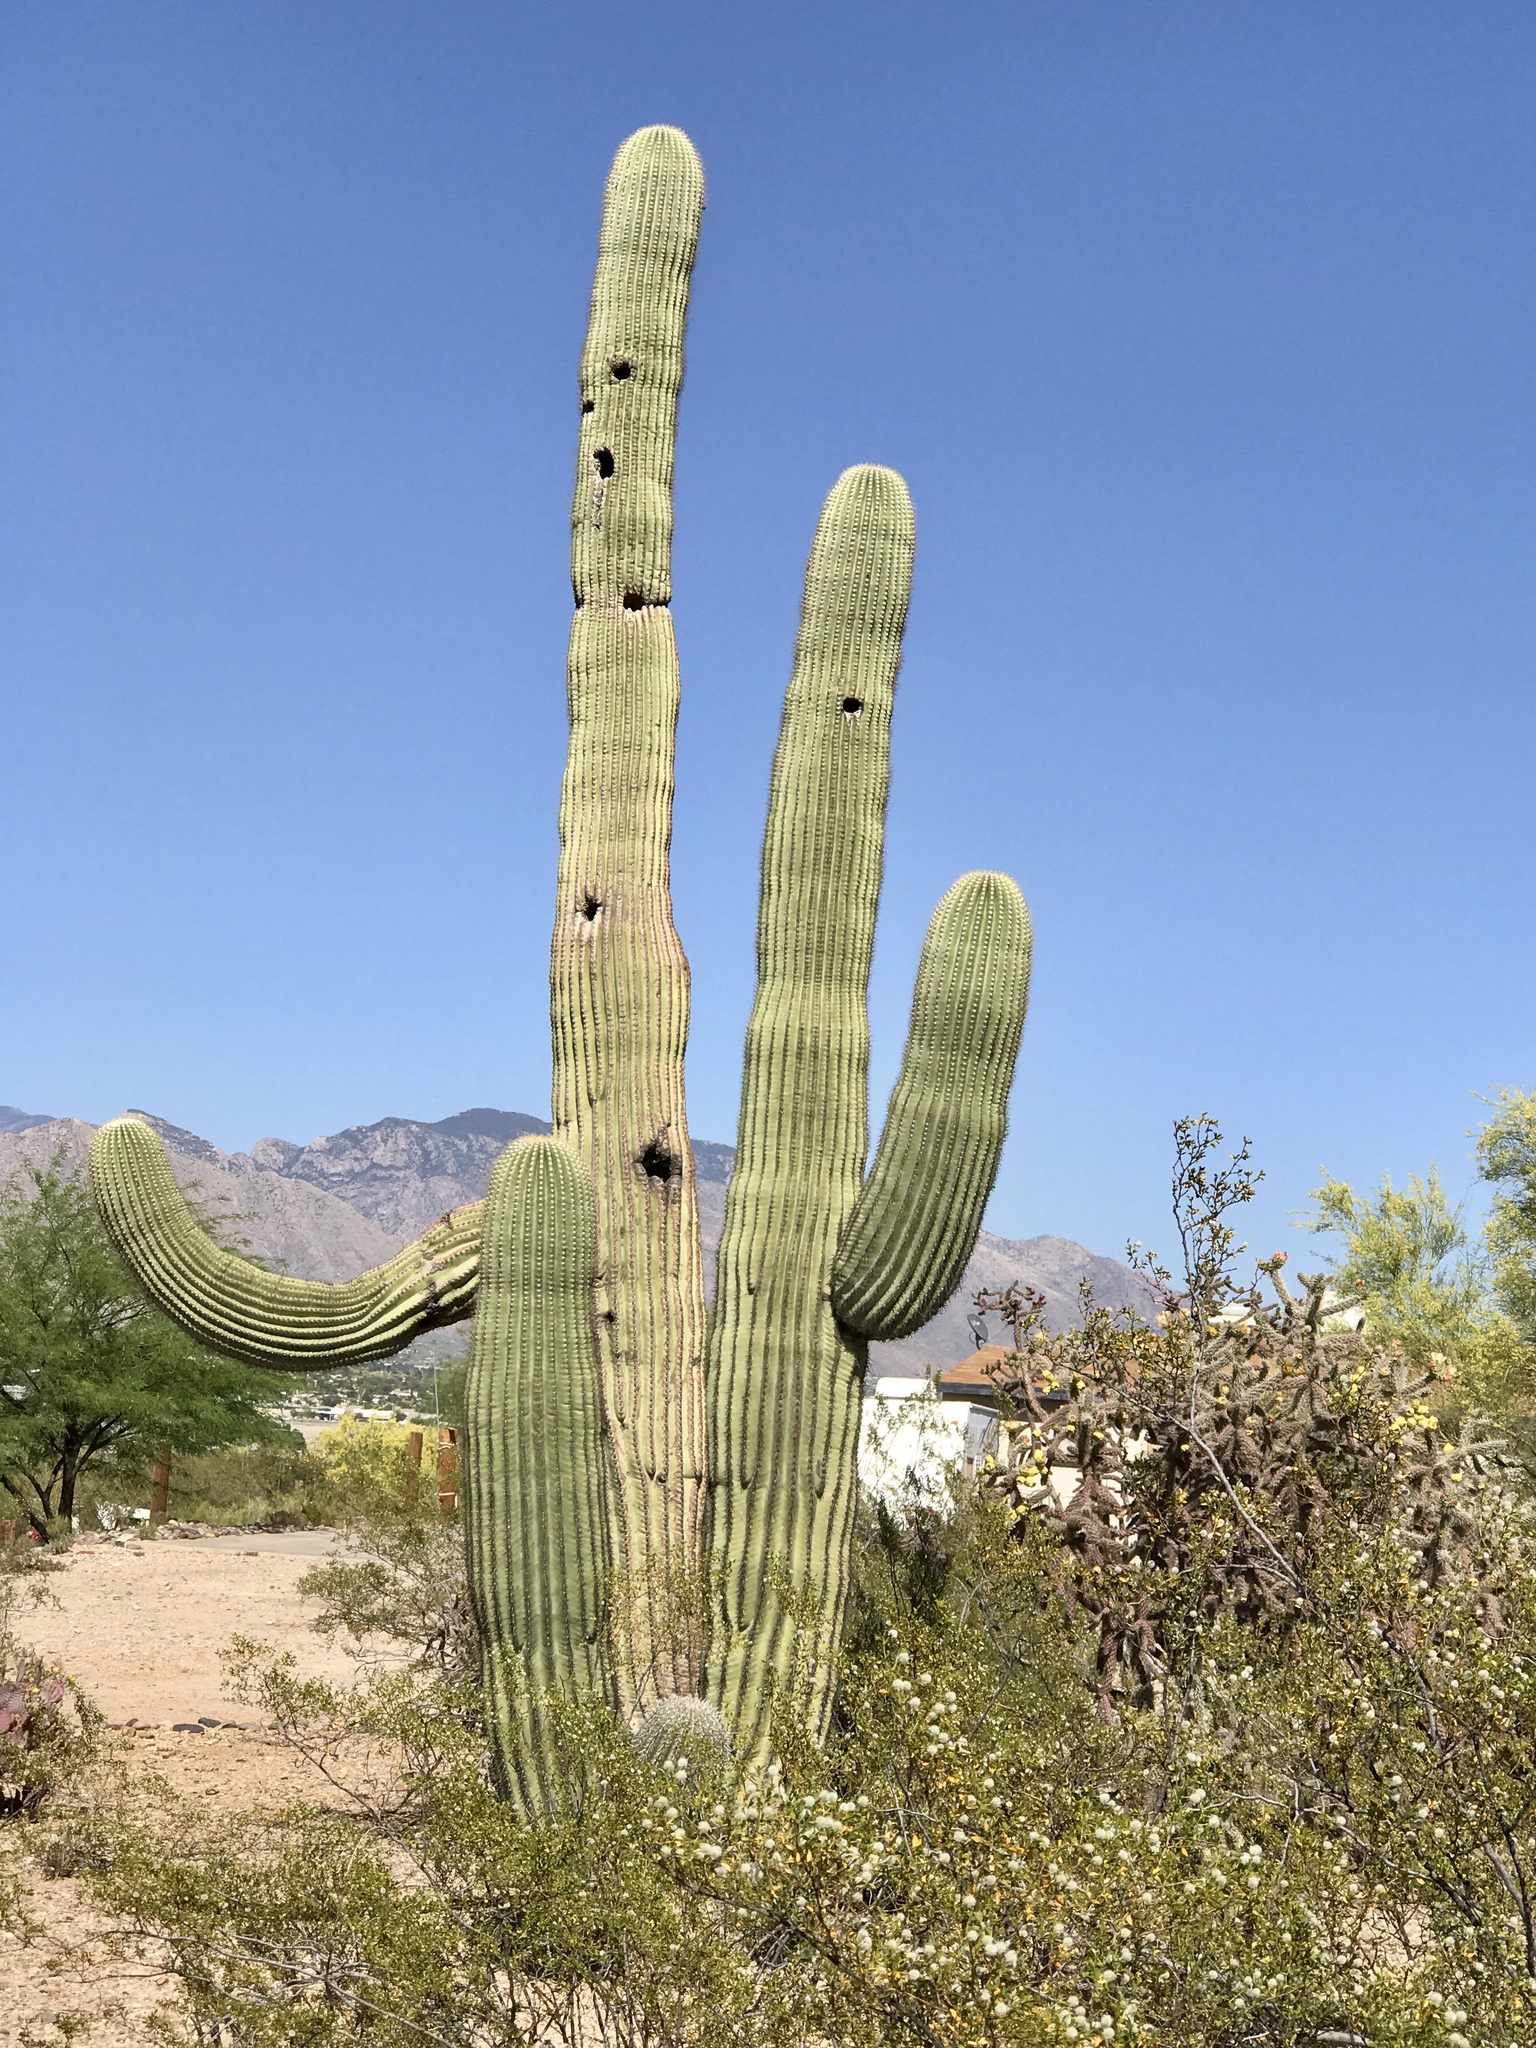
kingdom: Plantae
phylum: Tracheophyta
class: Magnoliopsida
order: Caryophyllales
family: Cactaceae
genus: Carnegiea
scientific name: Carnegiea gigantea
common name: Saguaro
